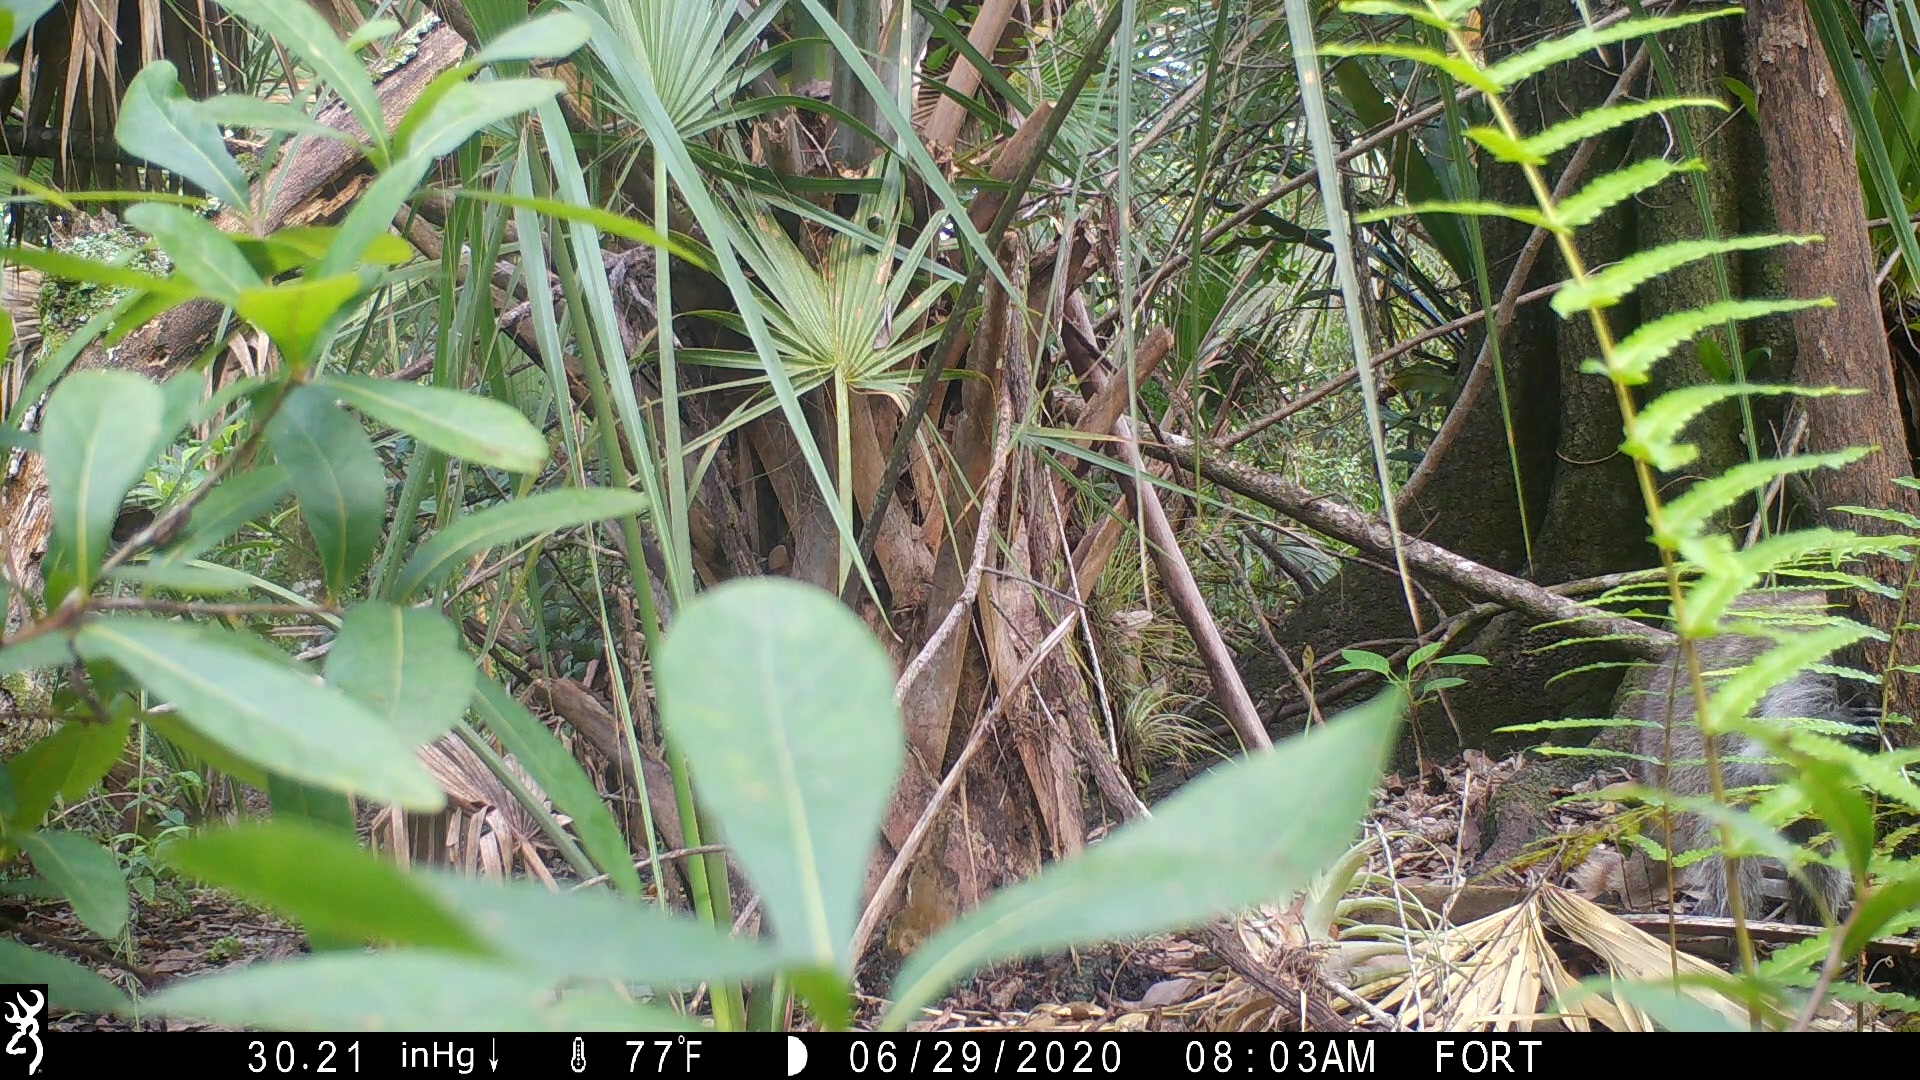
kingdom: Animalia
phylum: Chordata
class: Mammalia
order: Carnivora
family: Procyonidae
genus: Procyon
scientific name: Procyon lotor
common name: Raccoon
